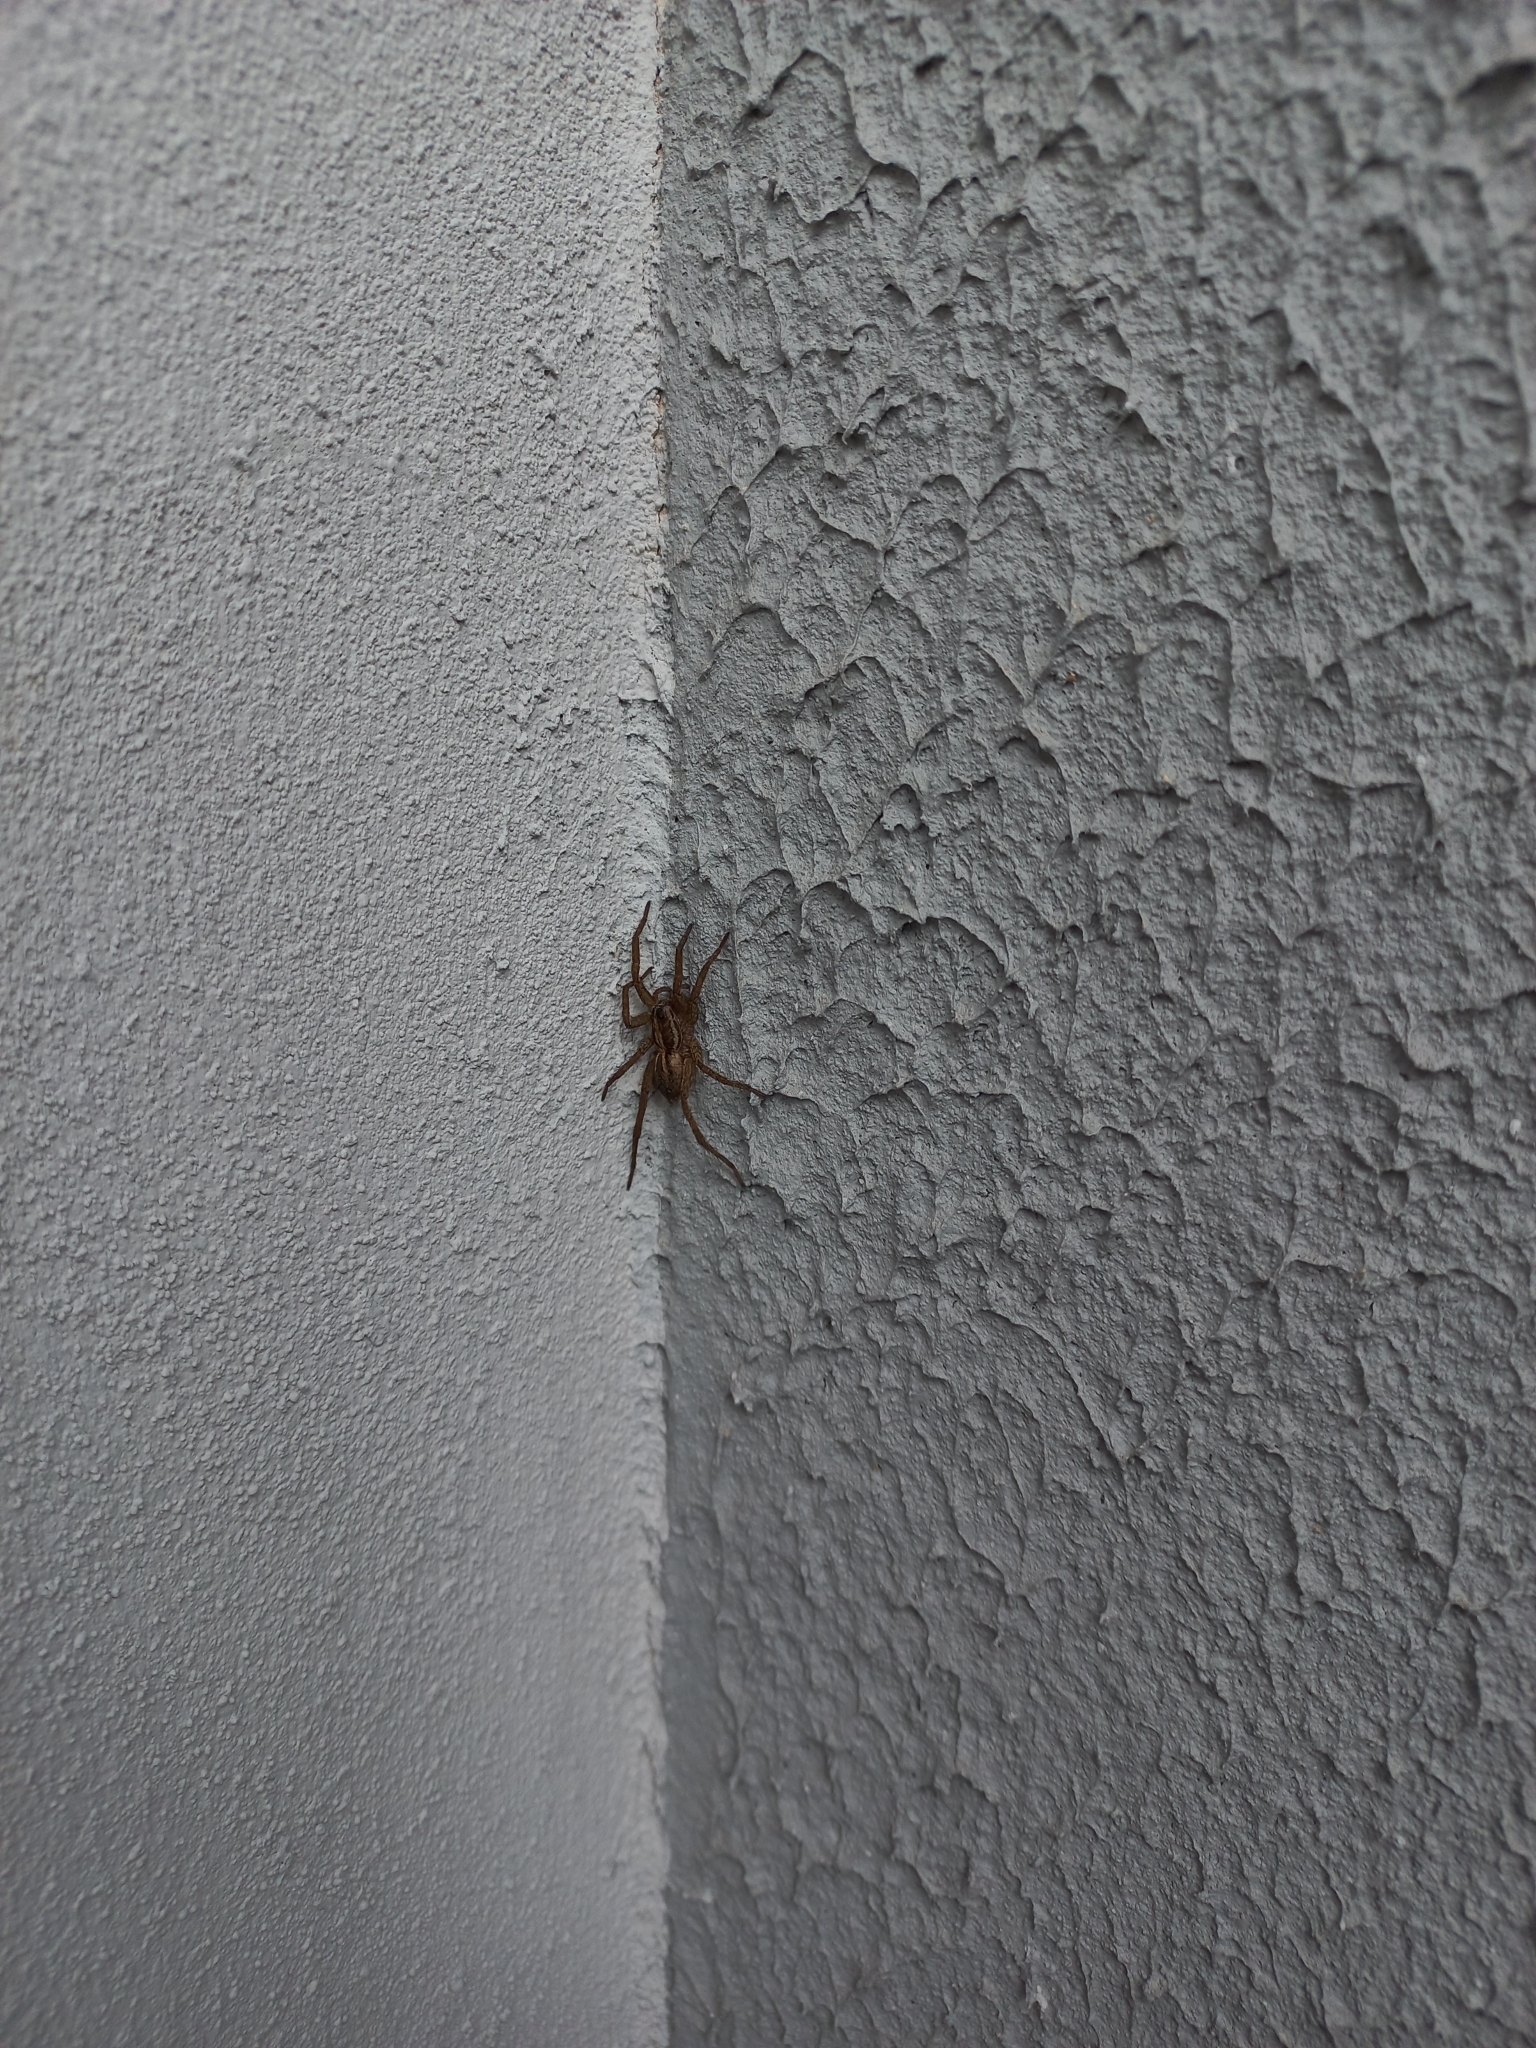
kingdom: Animalia
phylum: Arthropoda
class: Arachnida
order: Araneae
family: Lycosidae
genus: Alopecosa
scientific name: Alopecosa moesta
